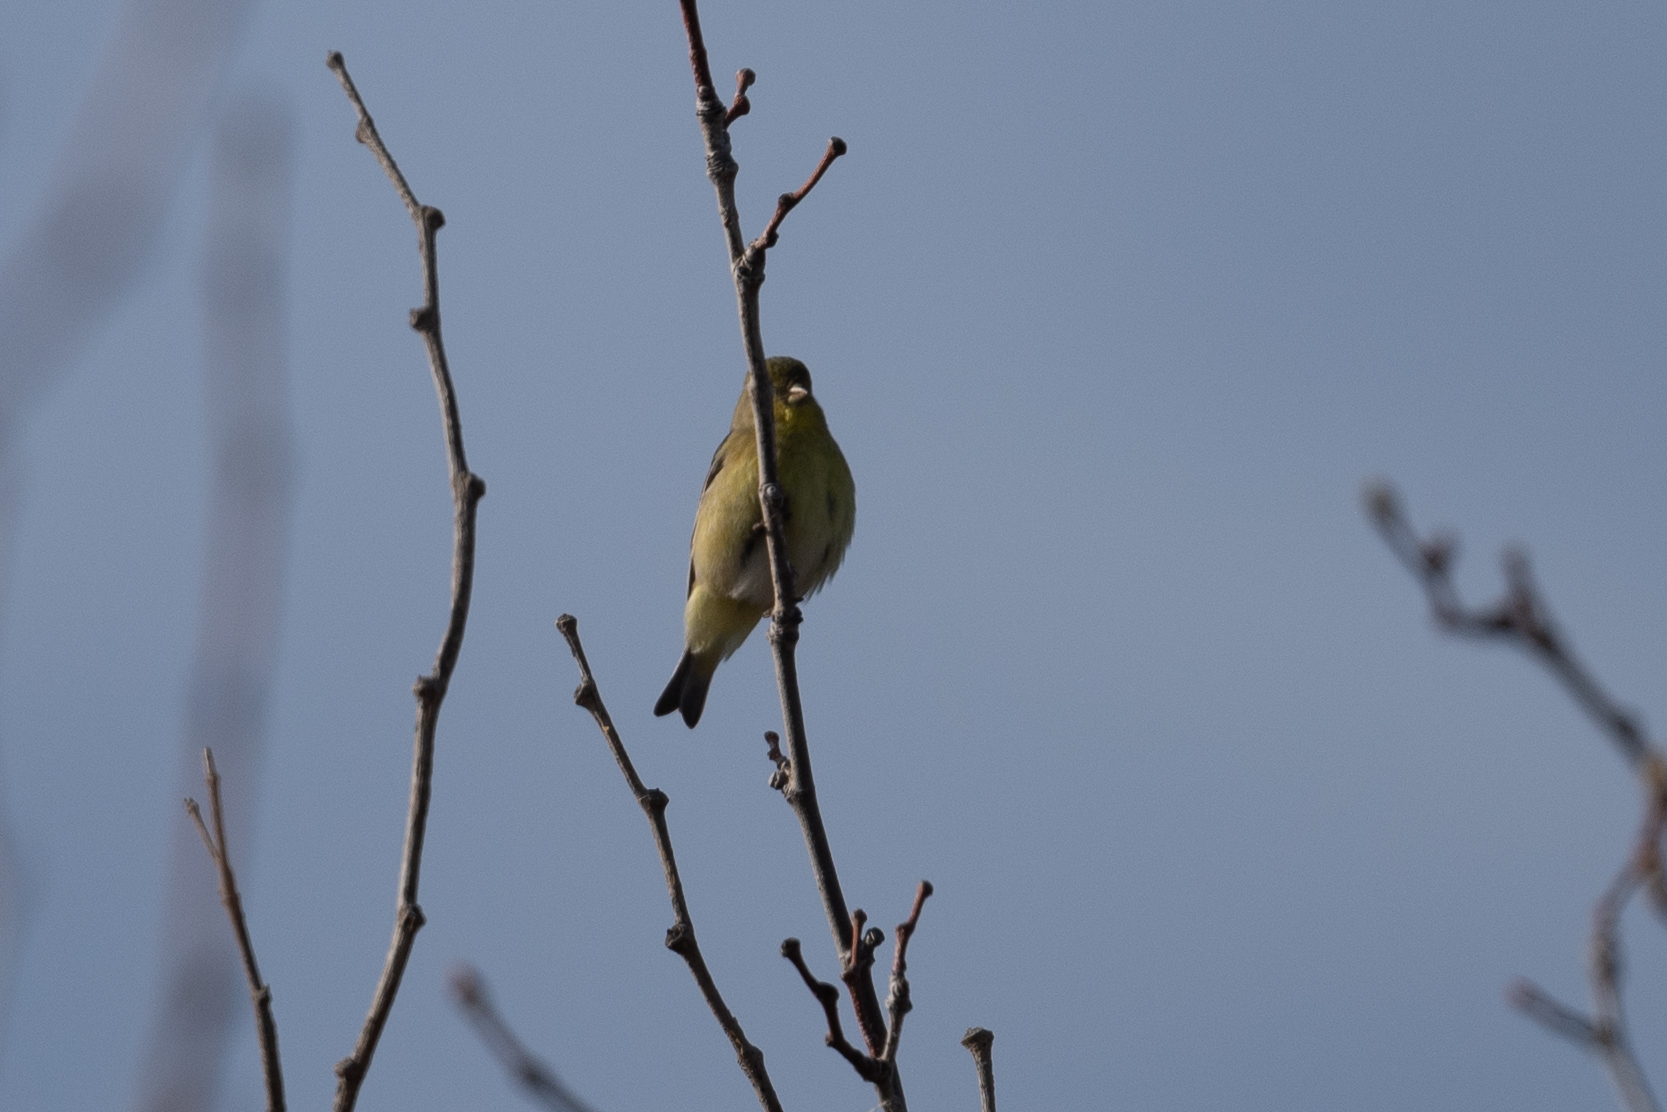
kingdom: Animalia
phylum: Chordata
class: Aves
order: Passeriformes
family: Fringillidae
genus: Spinus
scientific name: Spinus psaltria
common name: Lesser goldfinch
